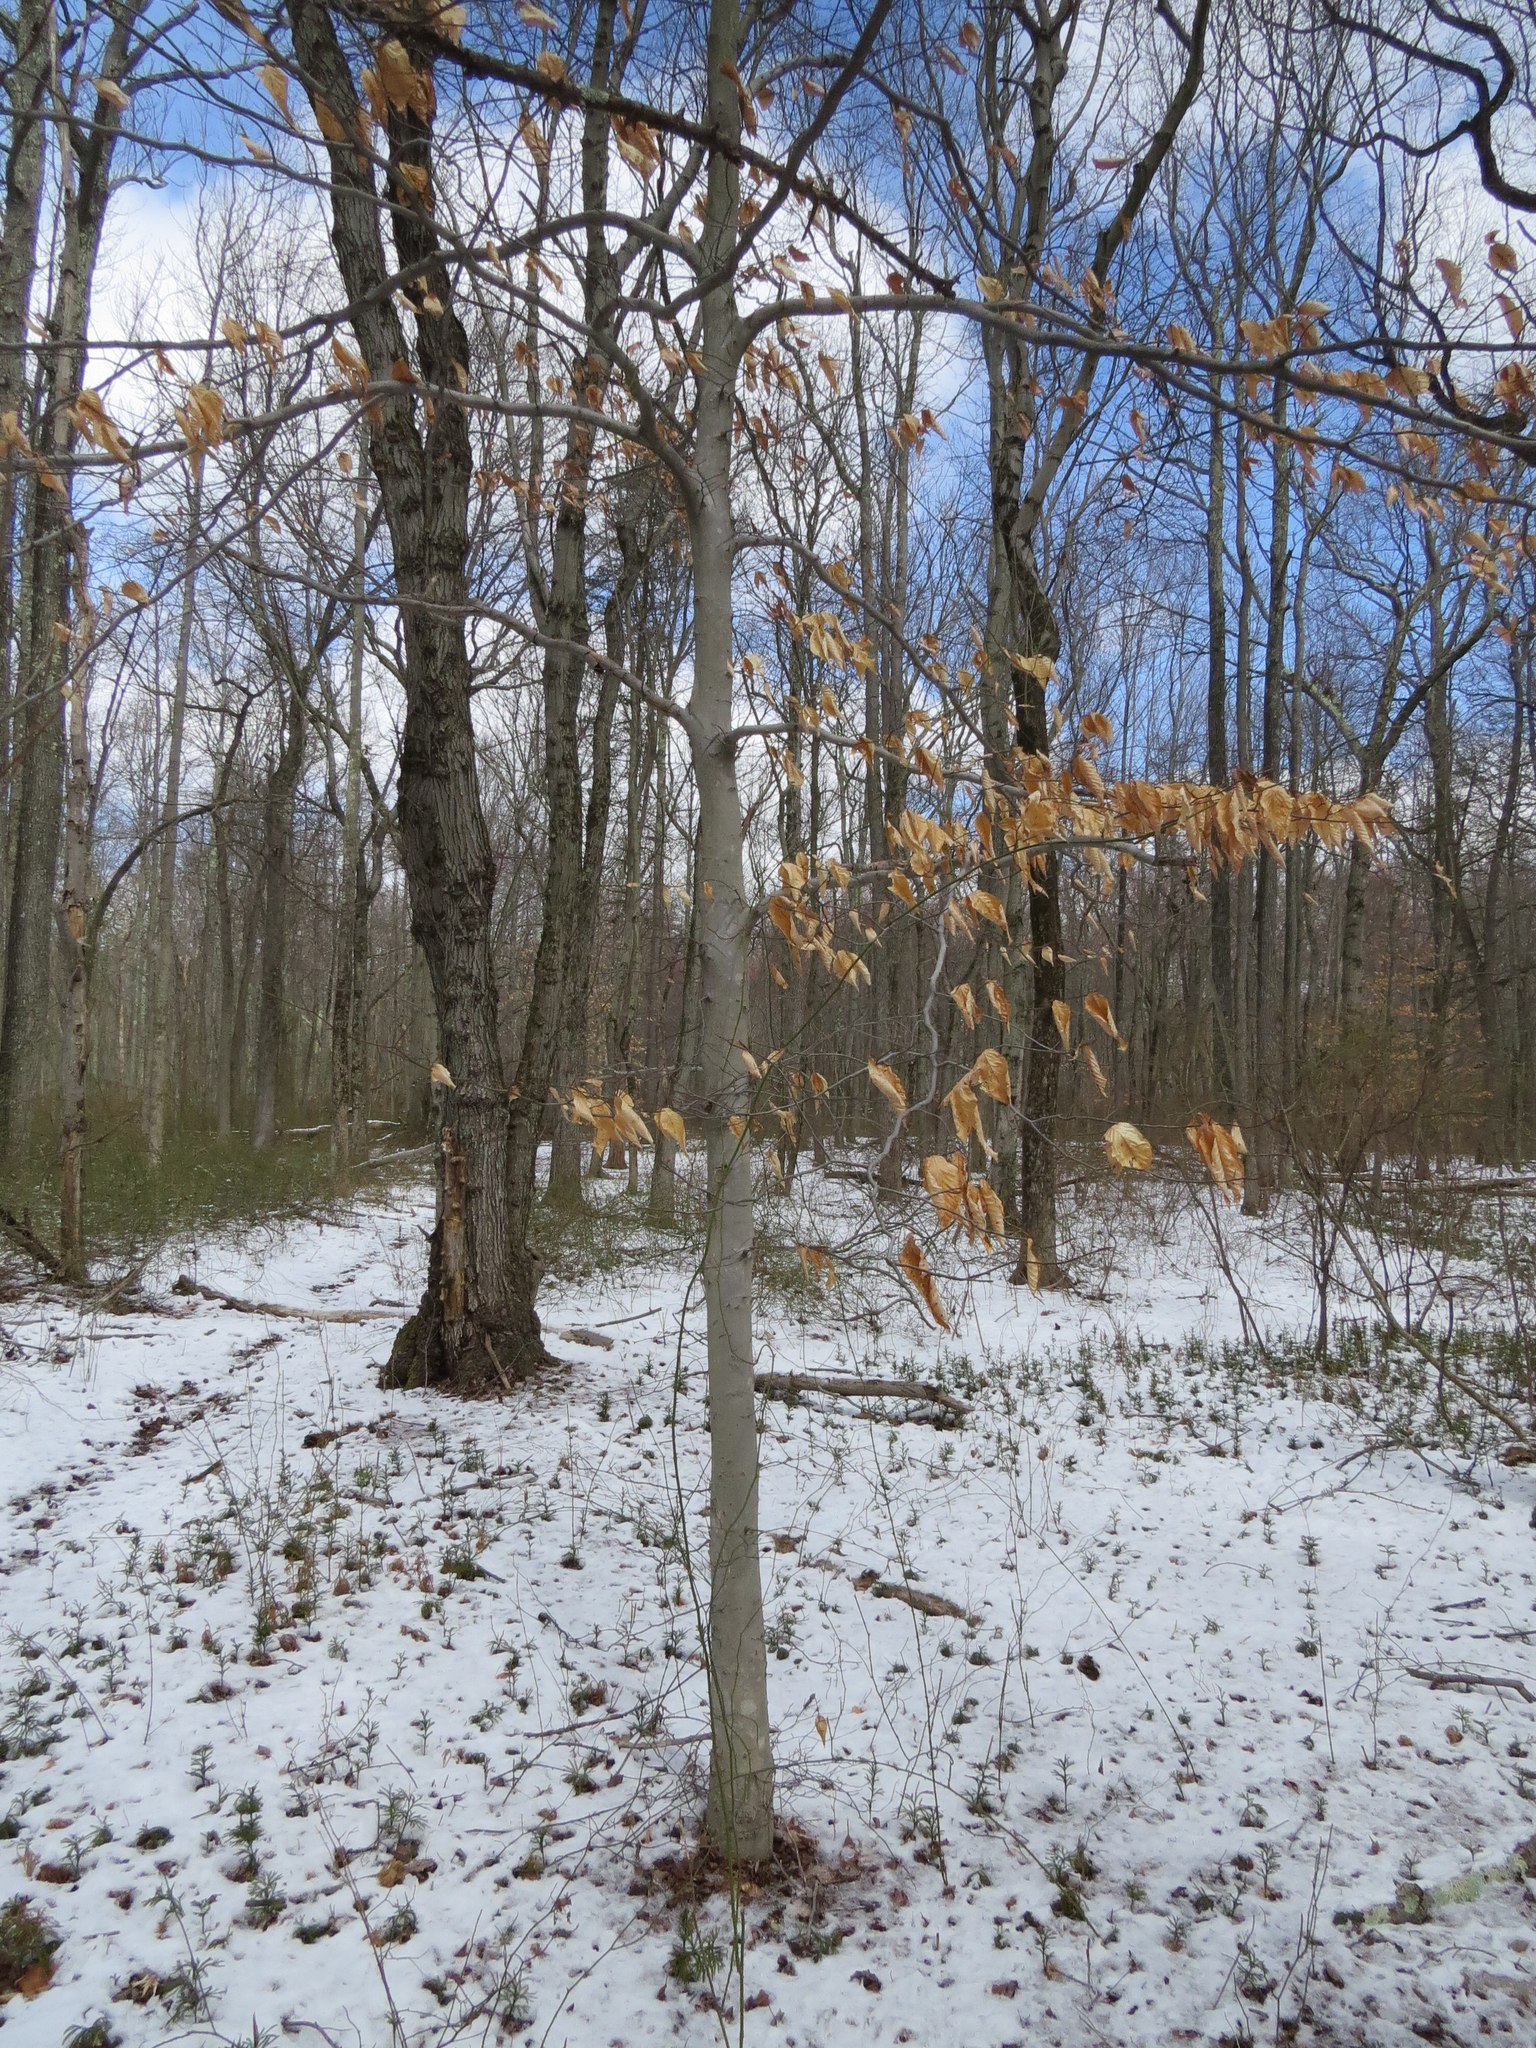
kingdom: Plantae
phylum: Tracheophyta
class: Magnoliopsida
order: Fagales
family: Fagaceae
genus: Fagus
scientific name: Fagus grandifolia
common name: American beech
